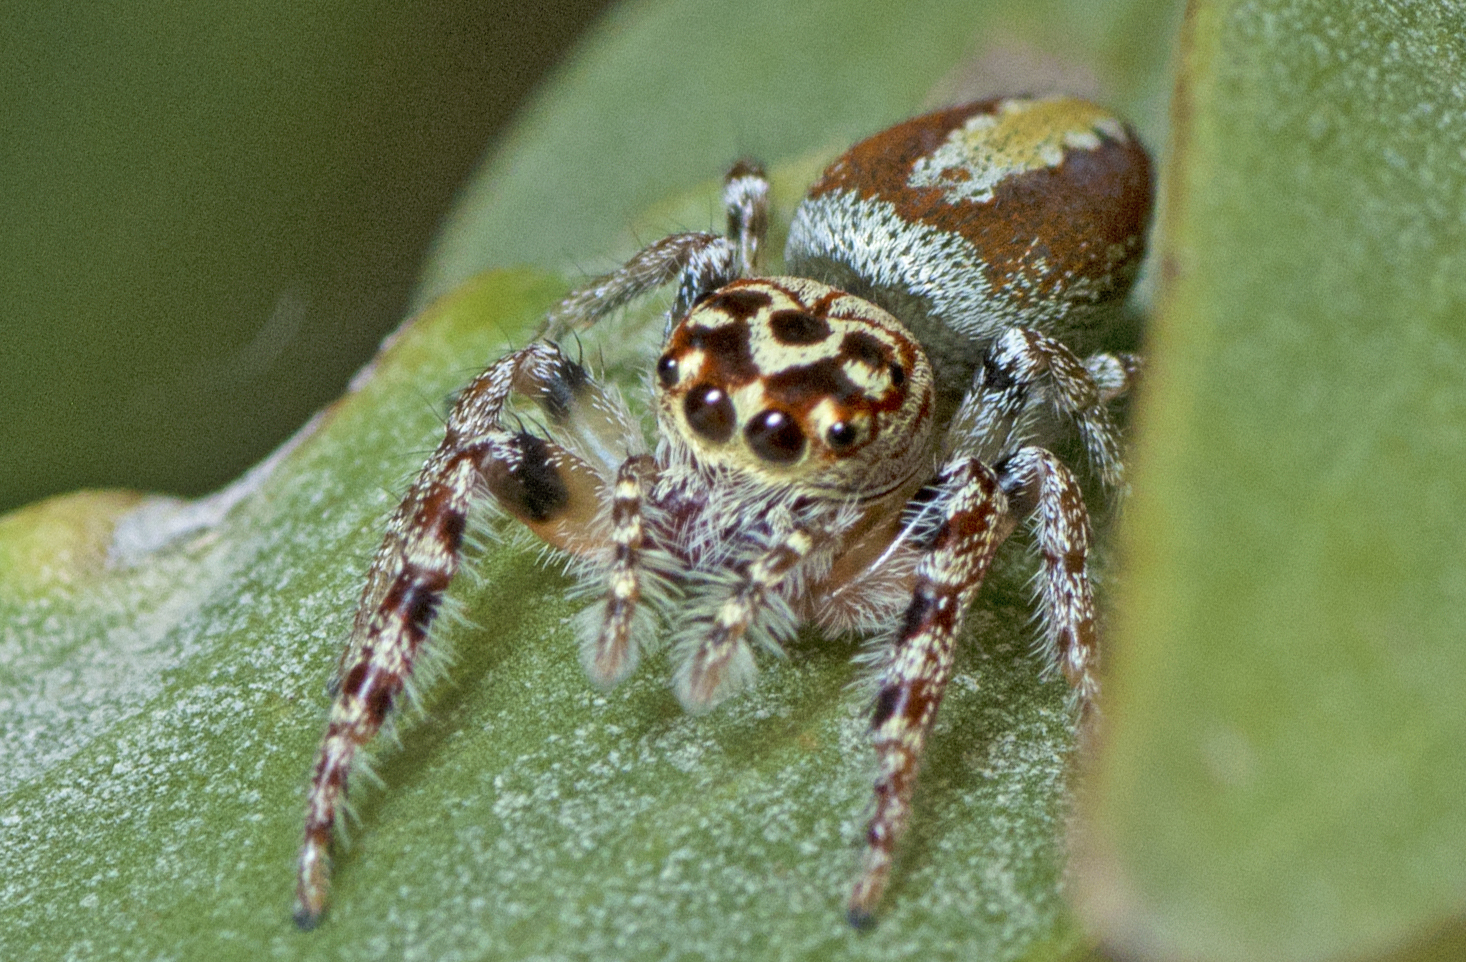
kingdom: Animalia
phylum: Arthropoda
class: Arachnida
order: Araneae
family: Salticidae
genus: Opisthoncus
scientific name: Opisthoncus alborufescens
